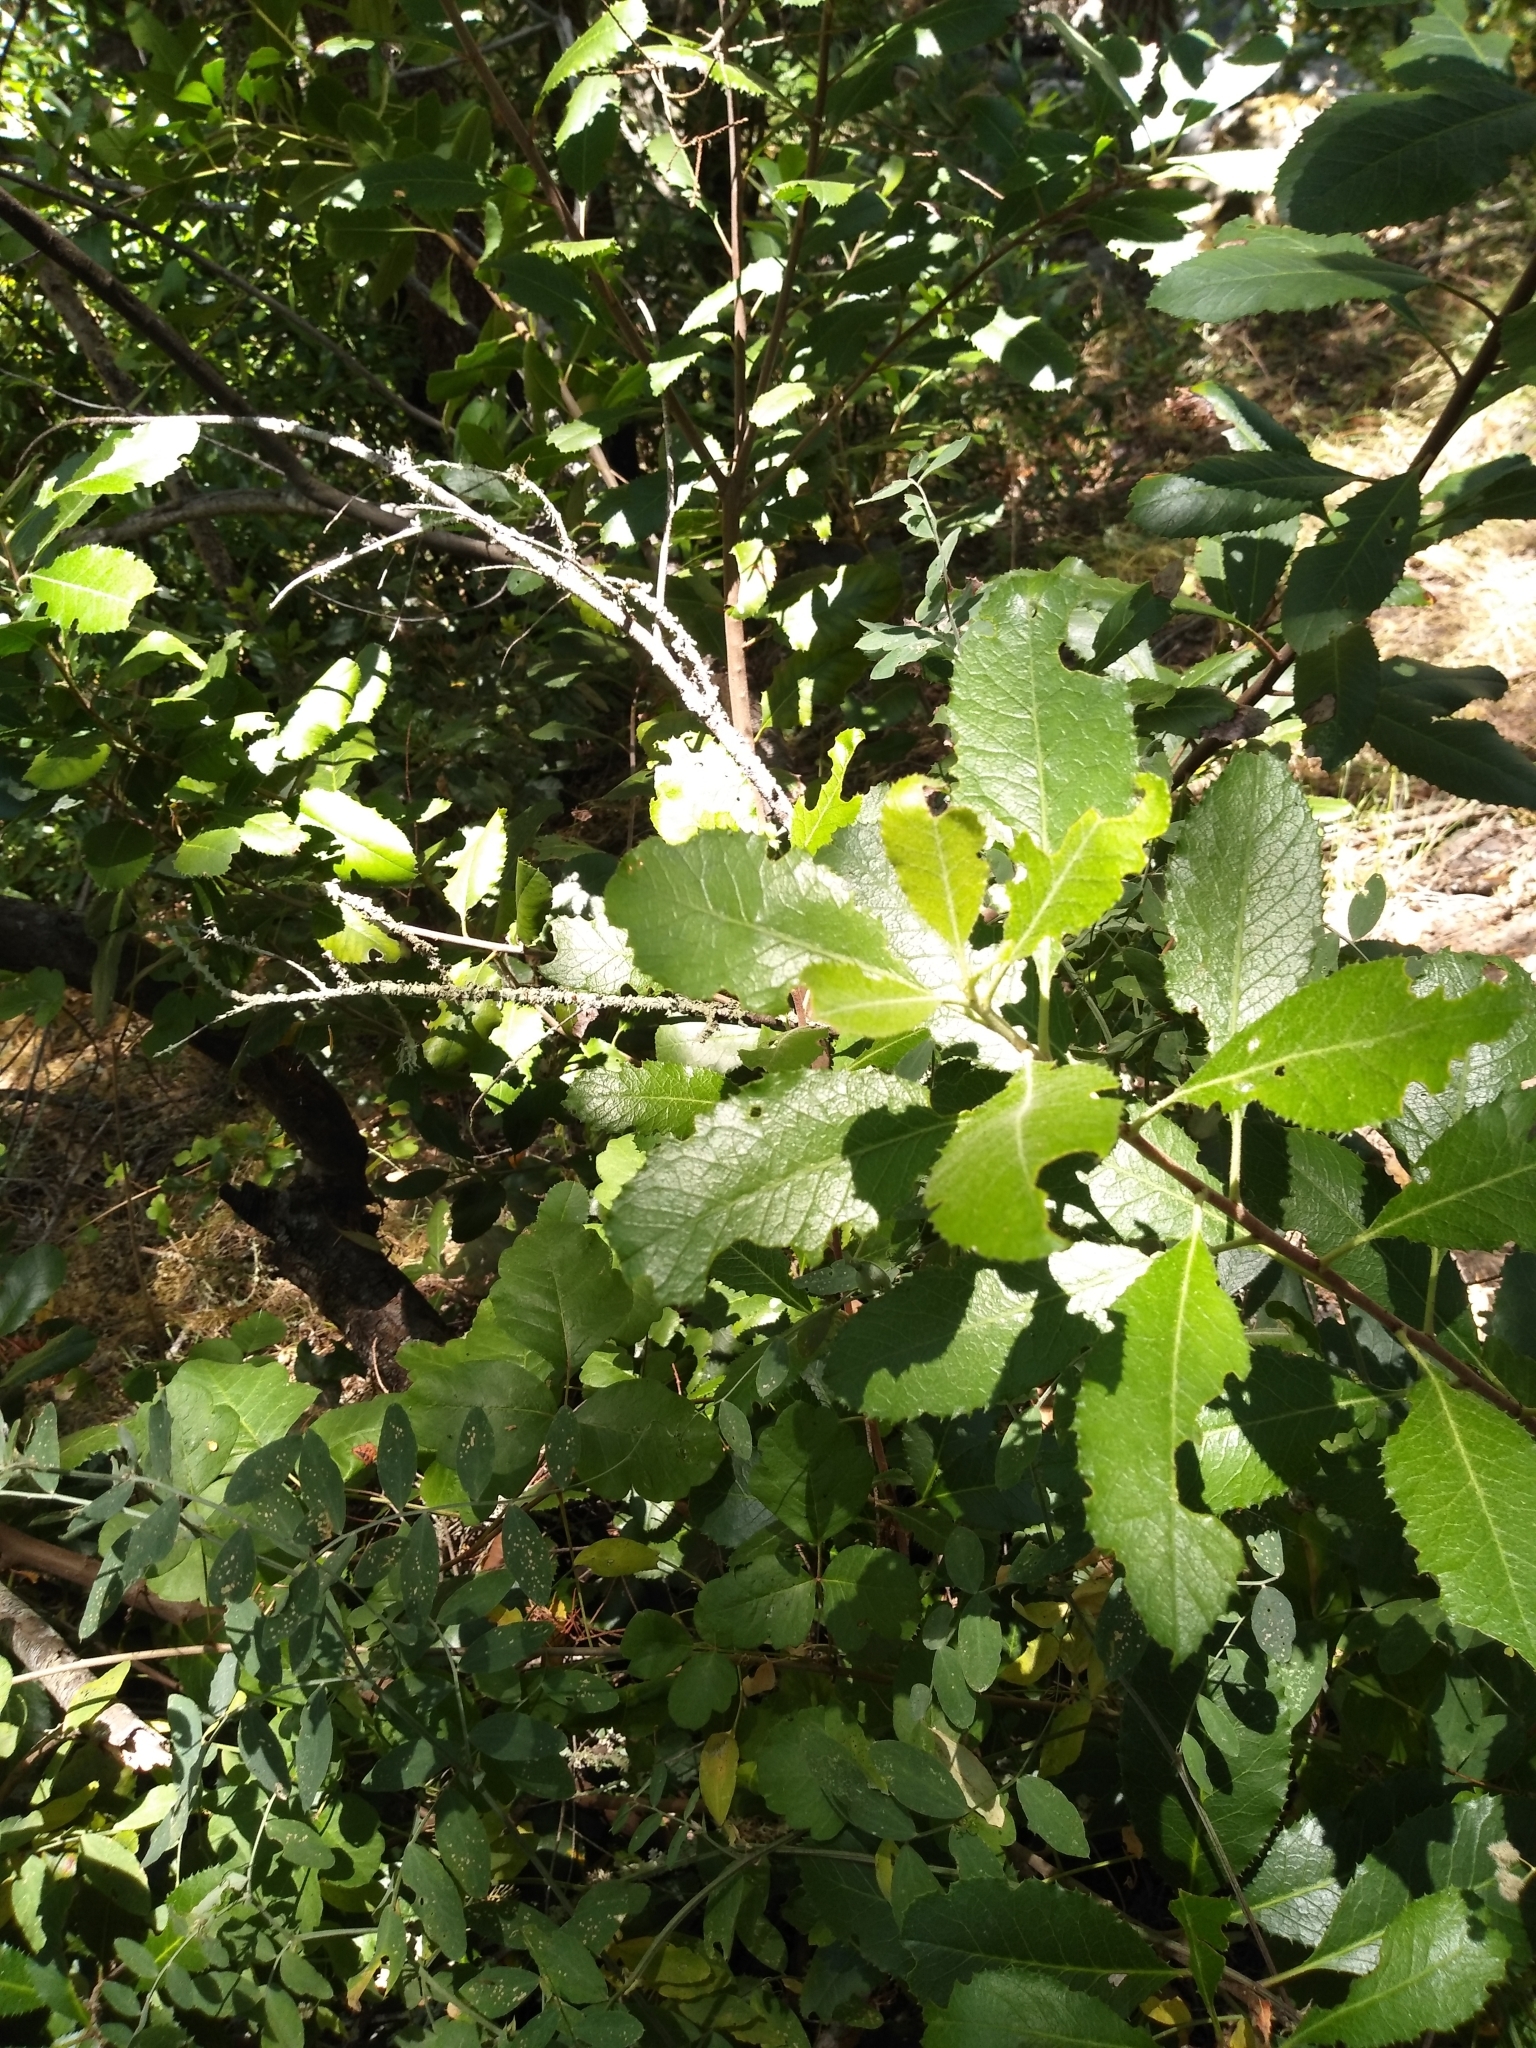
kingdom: Plantae
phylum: Tracheophyta
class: Magnoliopsida
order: Rosales
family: Rosaceae
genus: Heteromeles
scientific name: Heteromeles arbutifolia
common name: California-holly
